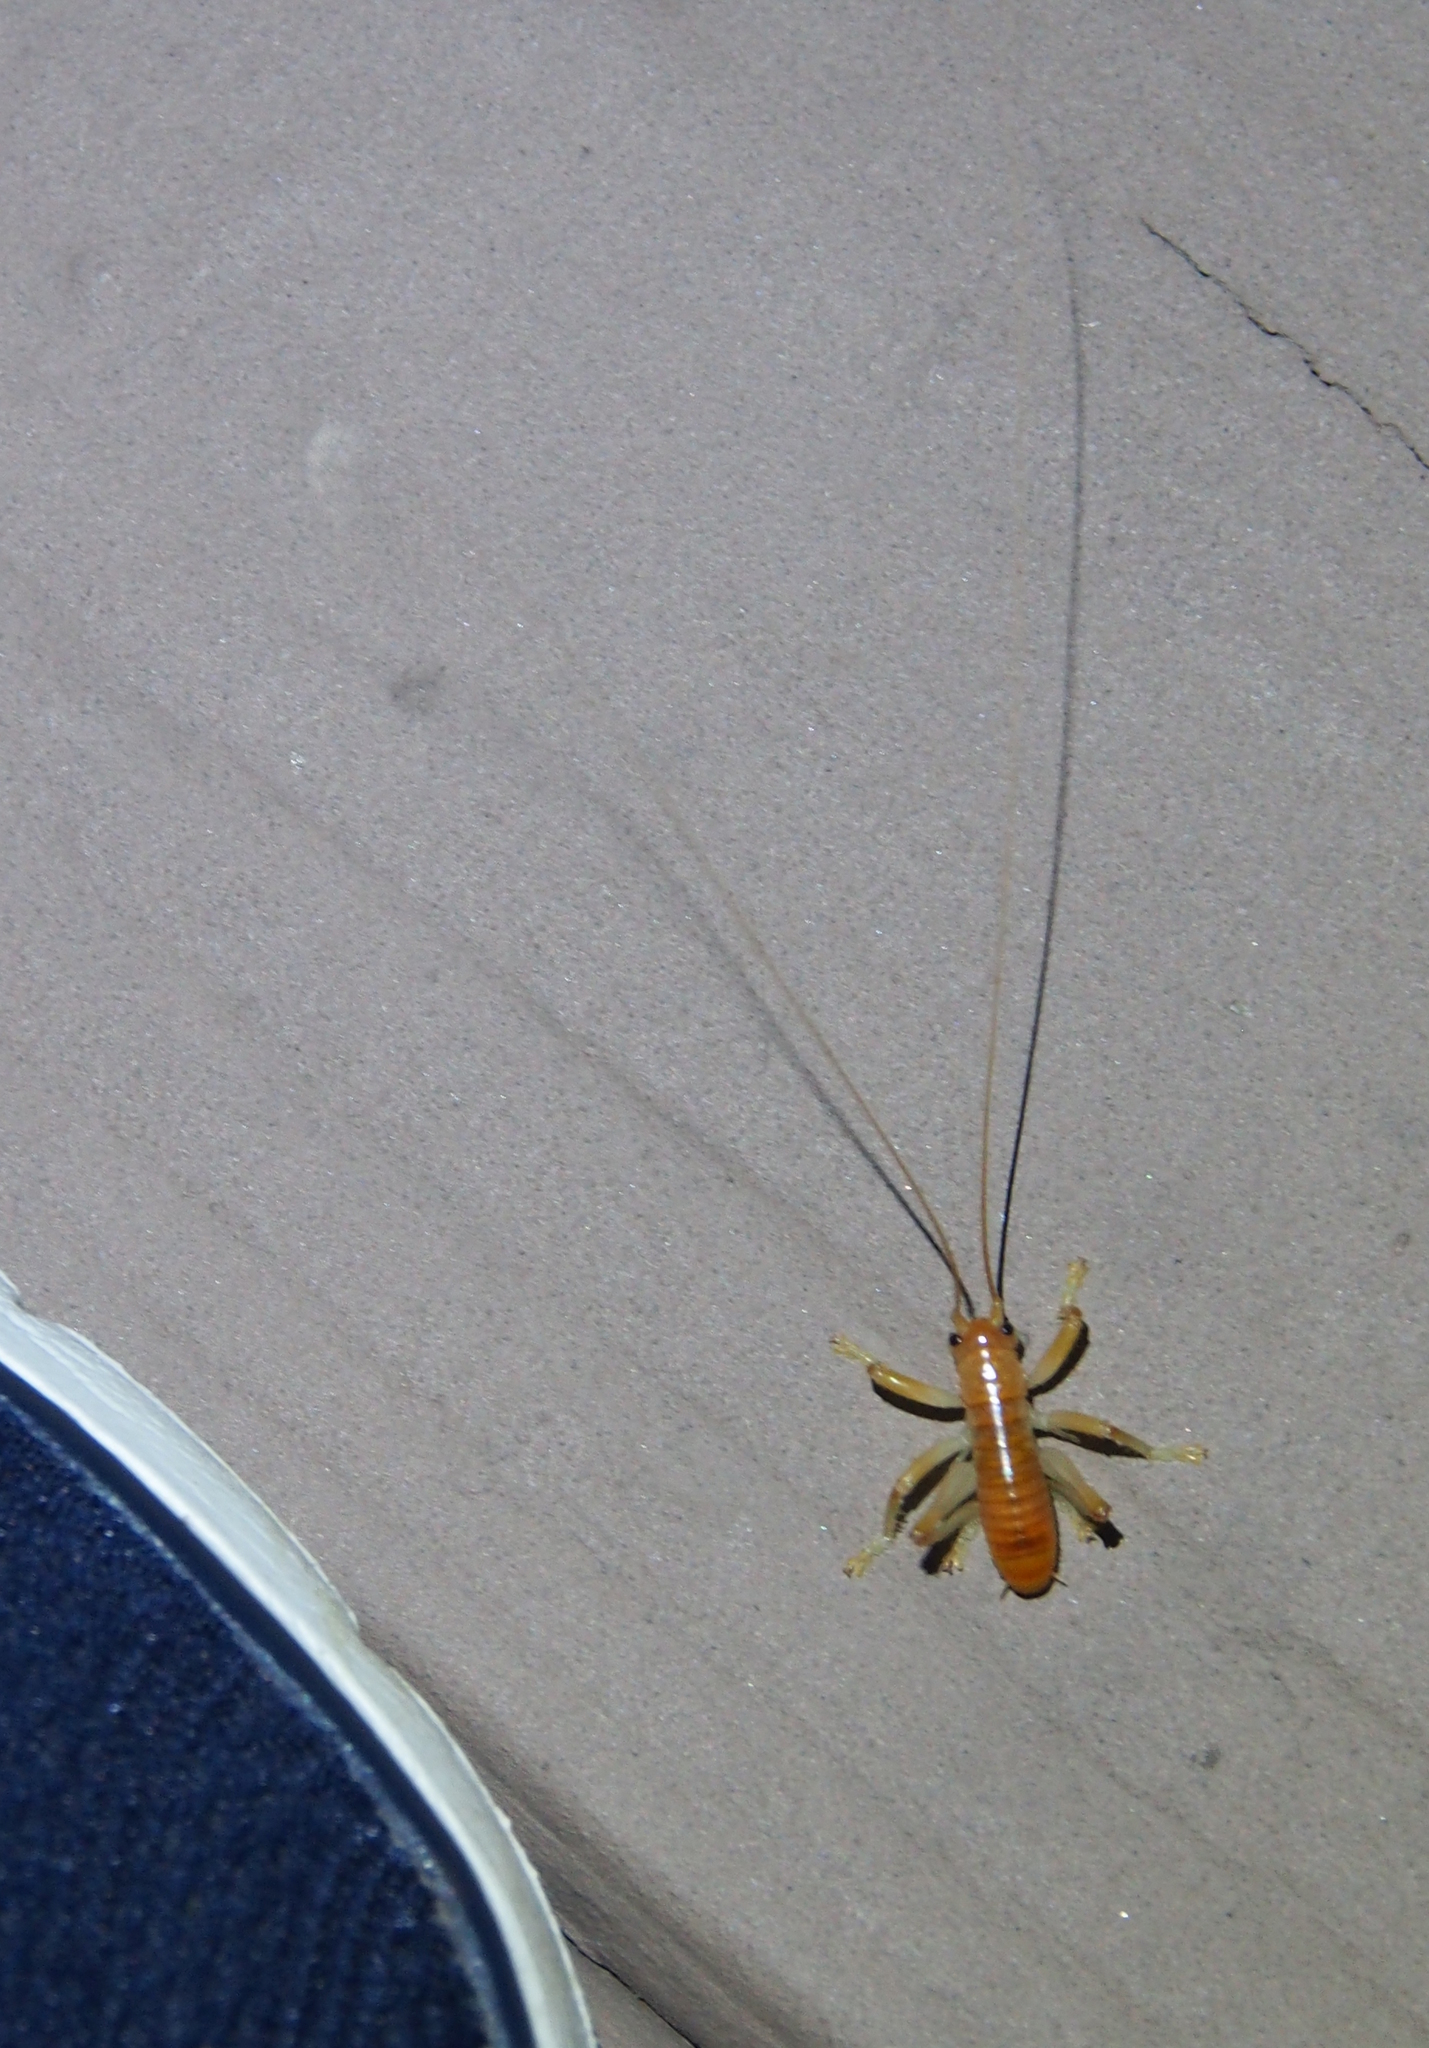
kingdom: Animalia
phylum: Arthropoda
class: Insecta
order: Orthoptera
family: Gryllacrididae
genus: Camptonotus
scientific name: Camptonotus carolinensis
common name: Carolina leaf-roller
